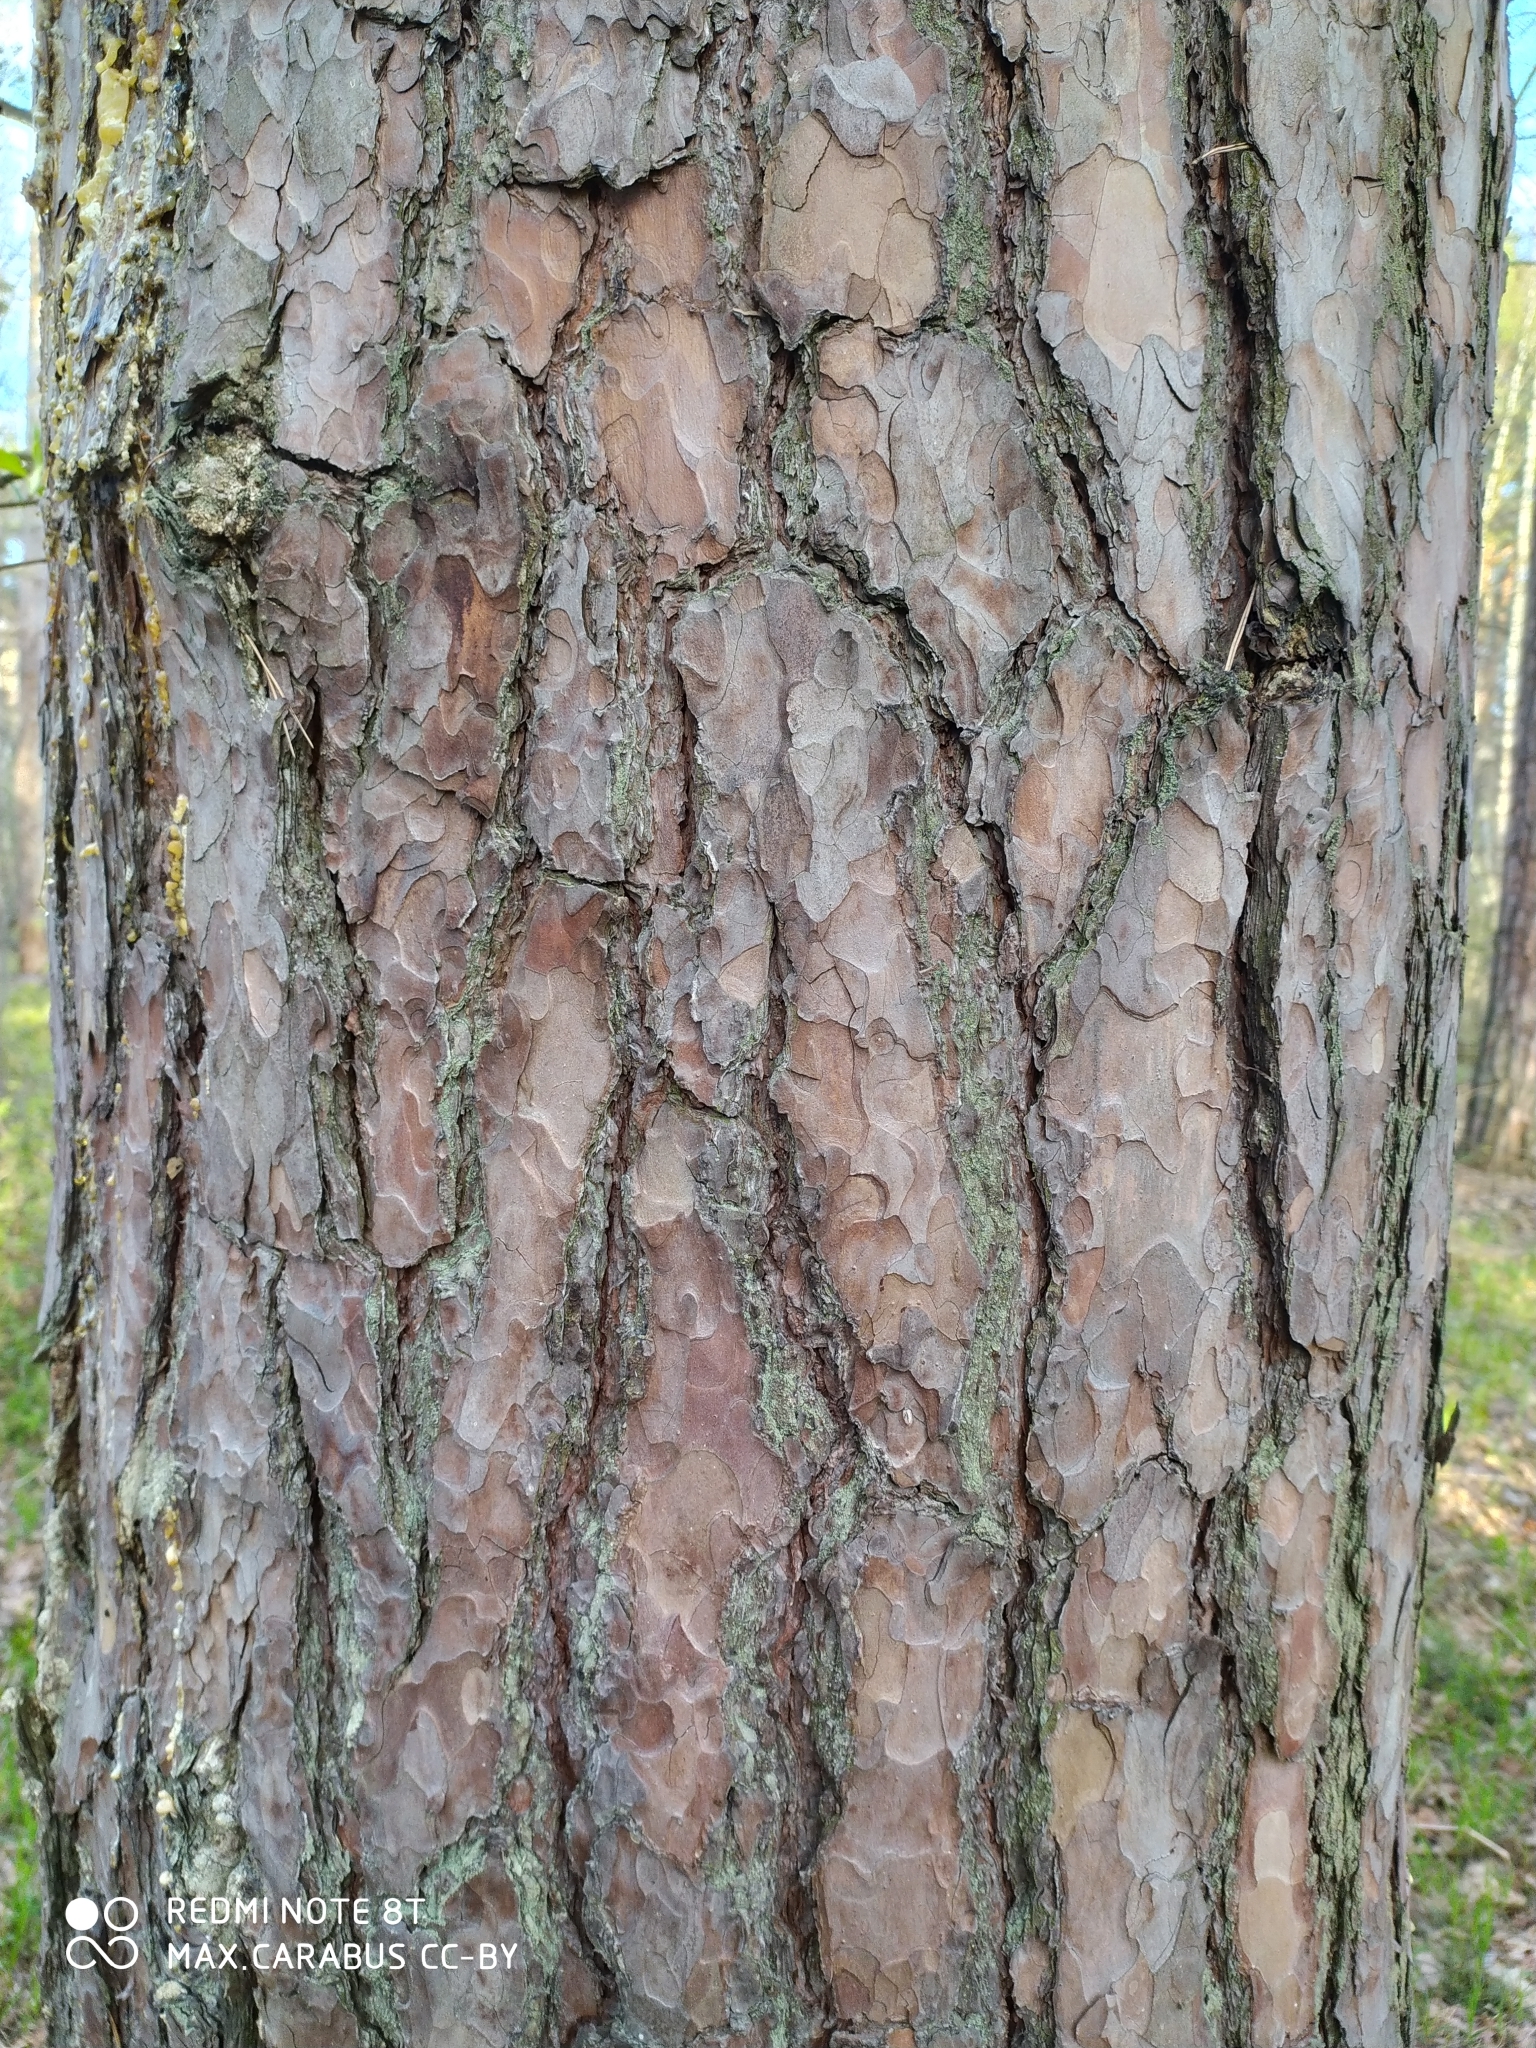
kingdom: Plantae
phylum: Tracheophyta
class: Pinopsida
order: Pinales
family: Pinaceae
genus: Pinus
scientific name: Pinus sylvestris
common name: Scots pine
